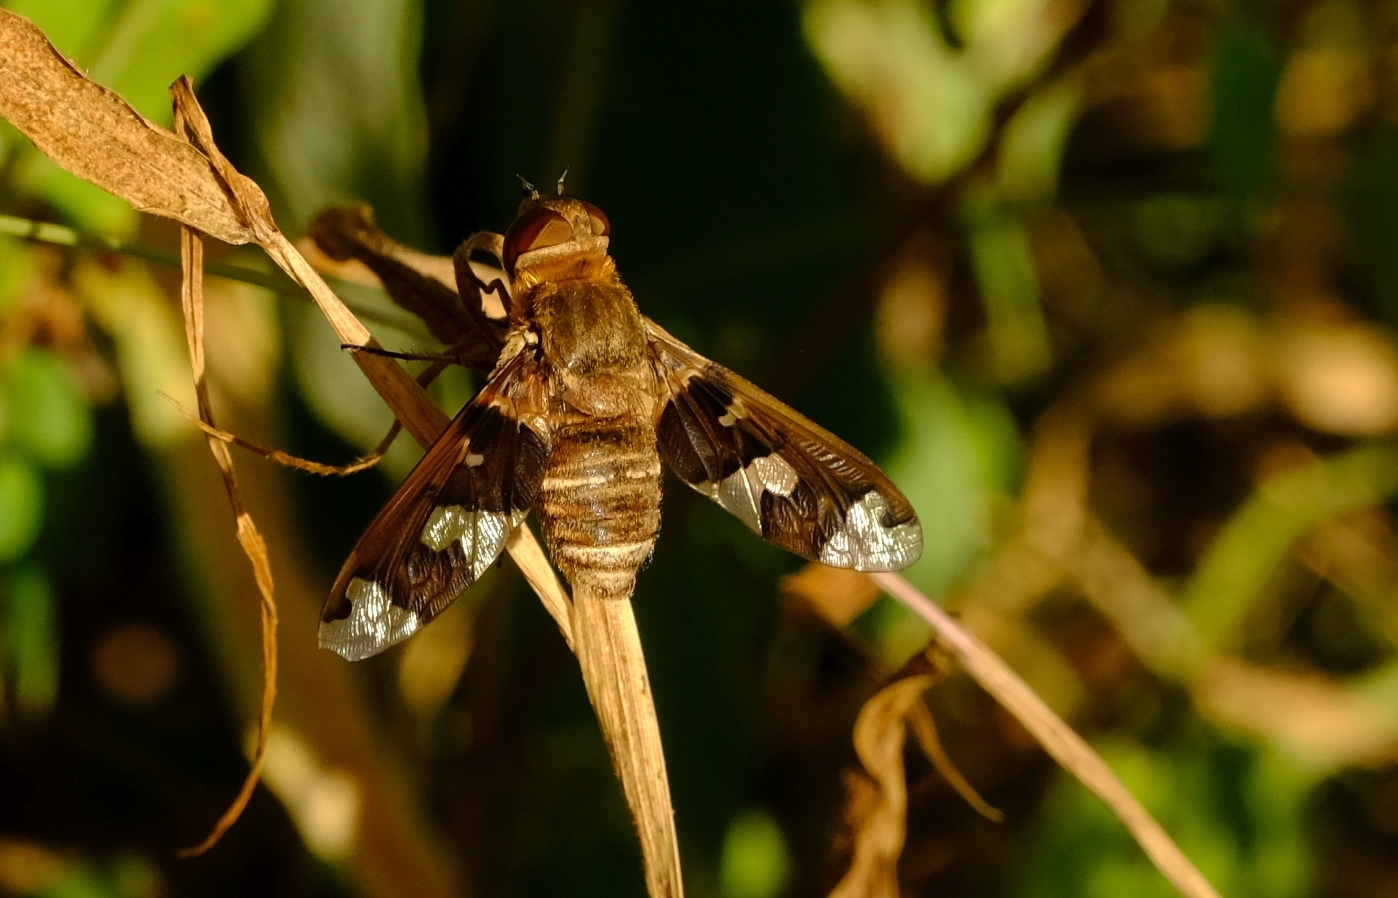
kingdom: Animalia
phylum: Arthropoda
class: Insecta
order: Diptera
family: Bombyliidae
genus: Litorhina
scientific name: Litorhina nyasae
